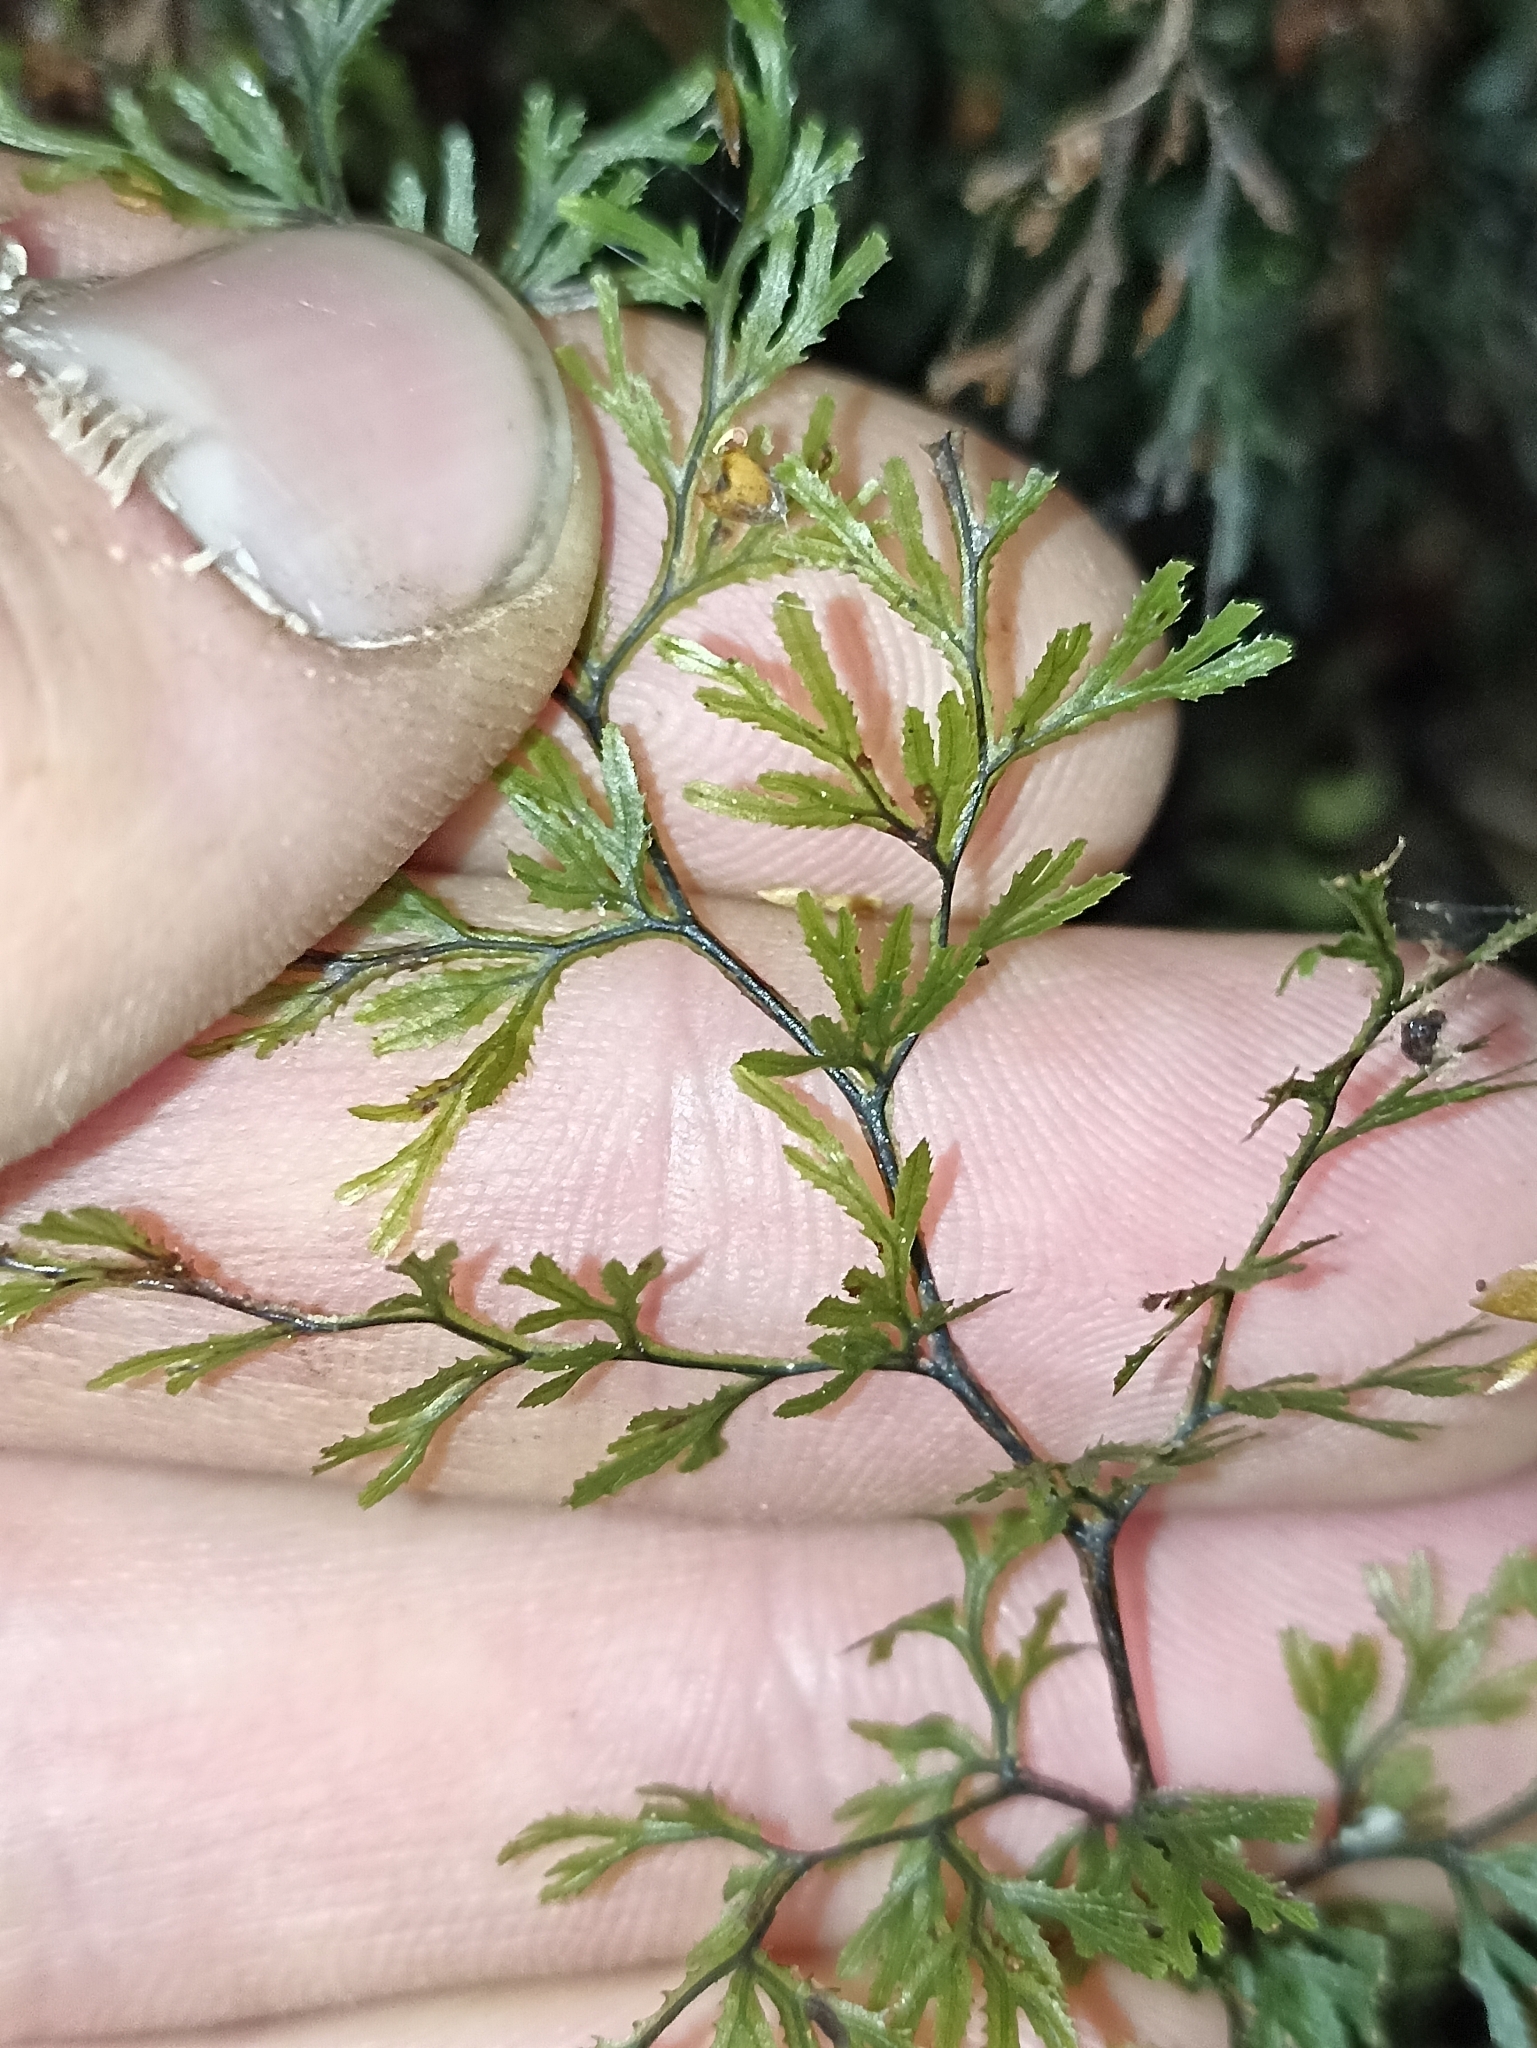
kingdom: Plantae
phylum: Tracheophyta
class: Polypodiopsida
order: Hymenophyllales
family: Hymenophyllaceae
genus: Hymenophyllum
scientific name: Hymenophyllum multifidum
